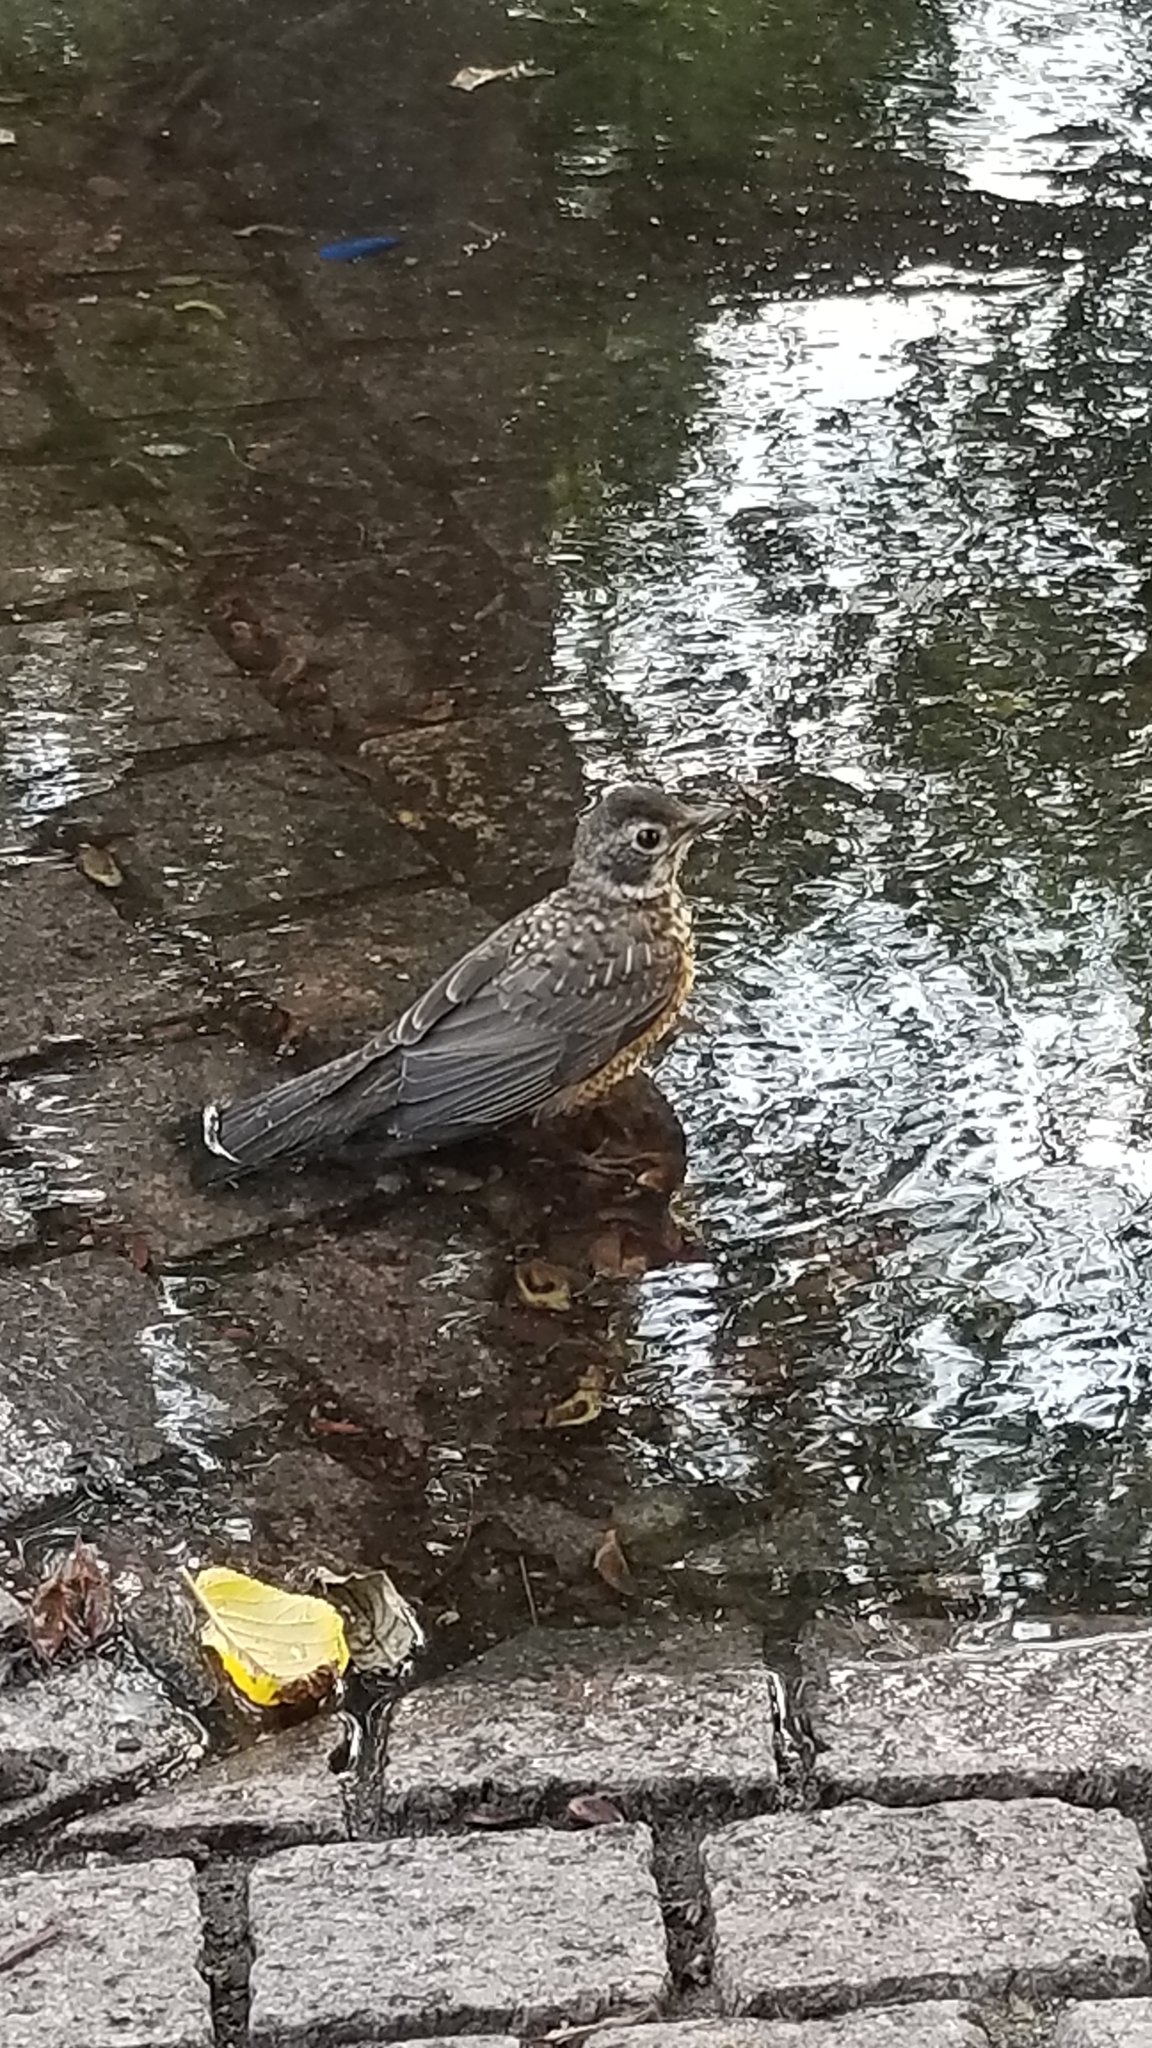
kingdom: Animalia
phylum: Chordata
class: Aves
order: Passeriformes
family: Turdidae
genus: Turdus
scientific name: Turdus migratorius
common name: American robin
